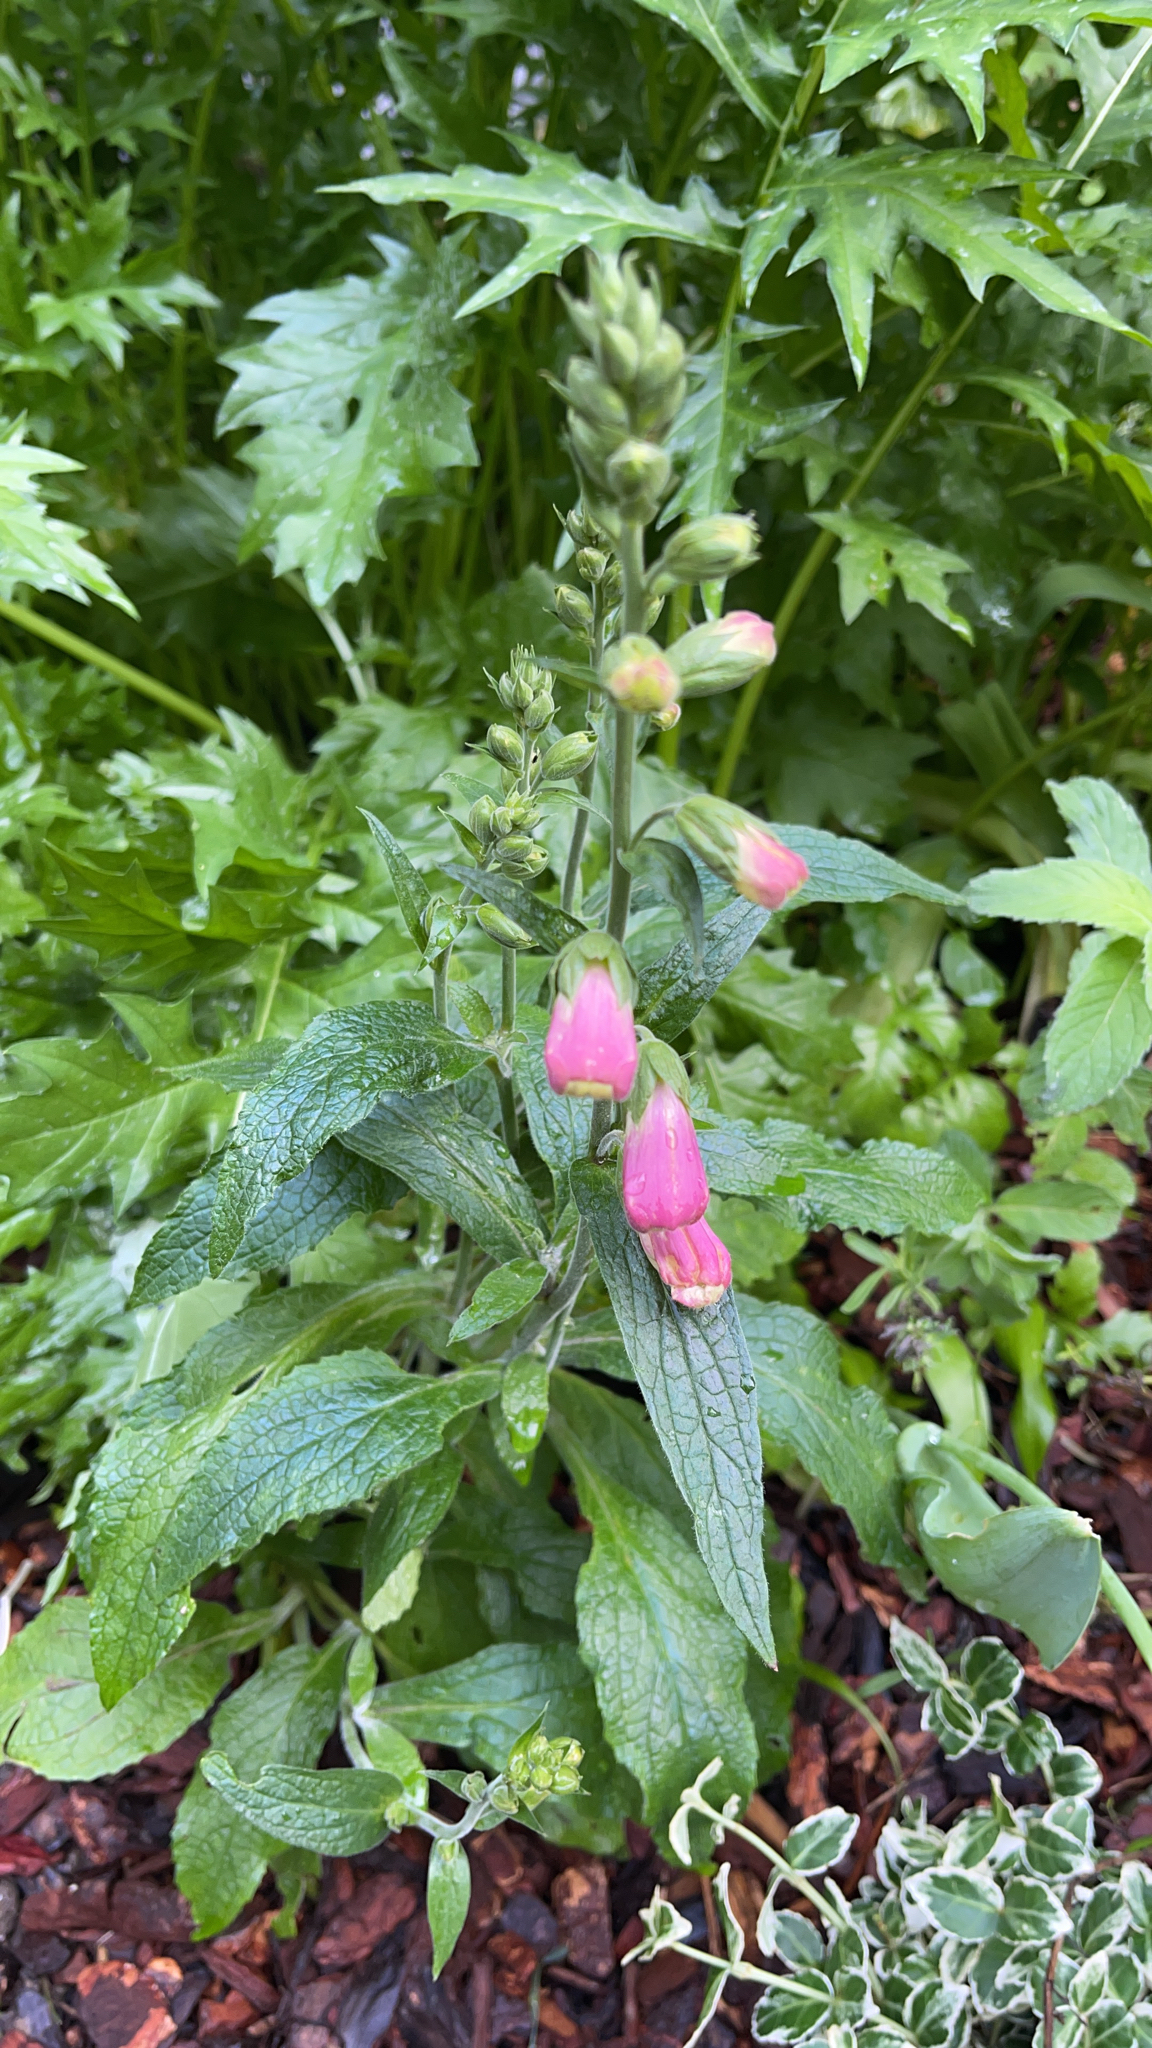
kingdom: Plantae
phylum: Tracheophyta
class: Magnoliopsida
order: Lamiales
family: Plantaginaceae
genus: Digitalis
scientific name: Digitalis purpurea
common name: Foxglove
